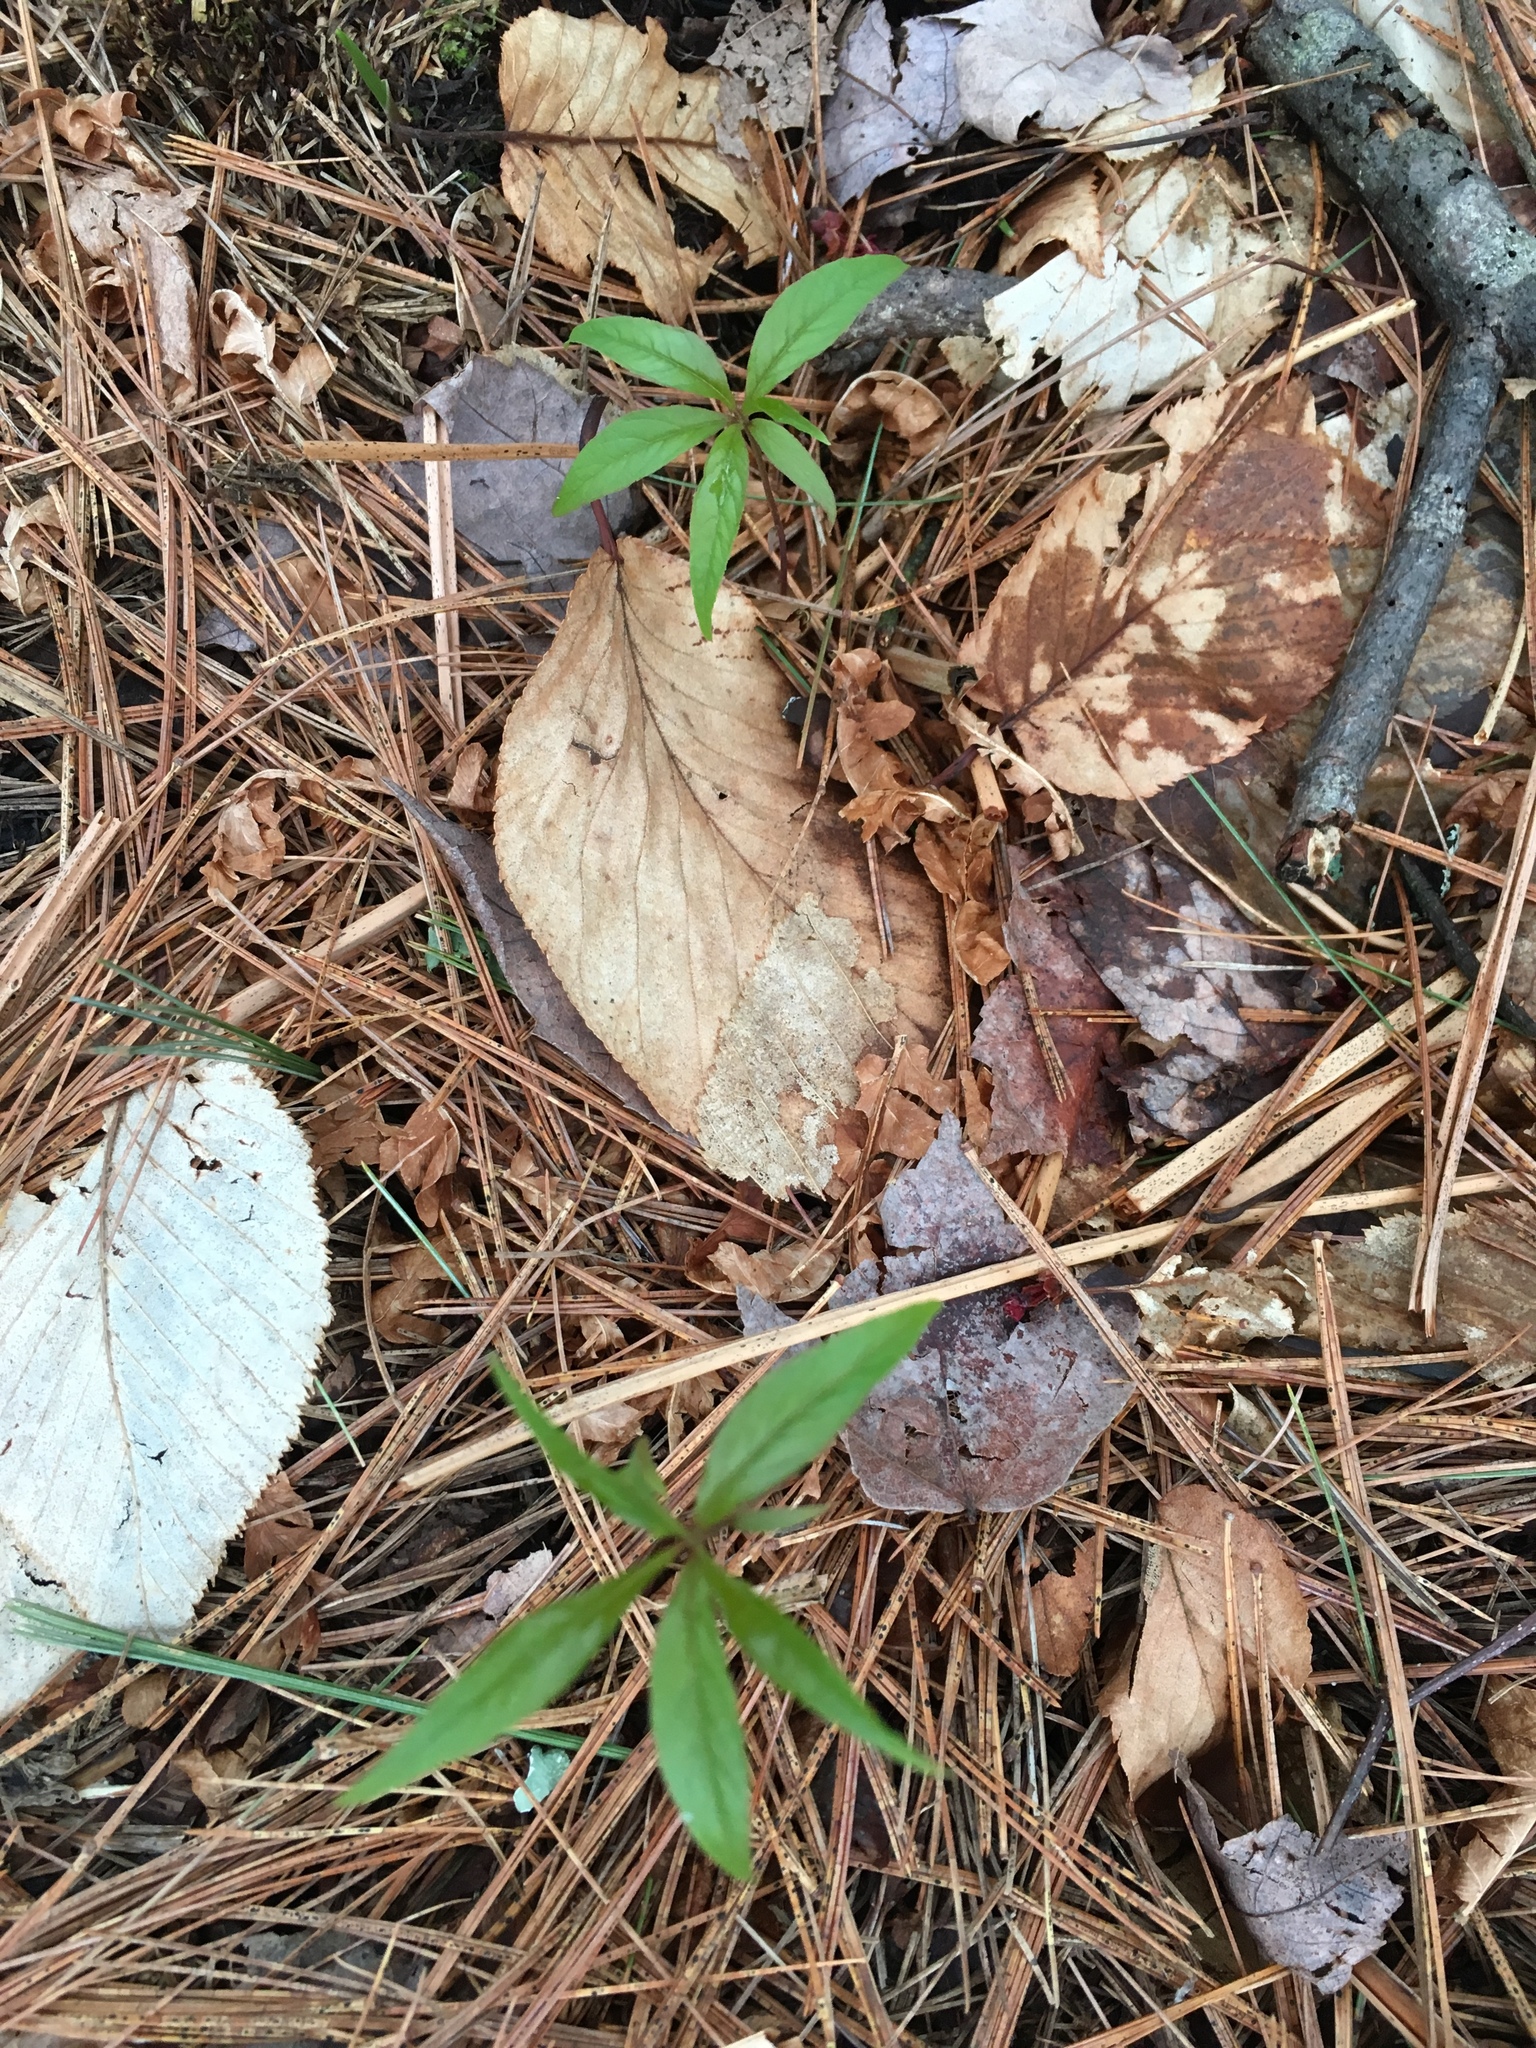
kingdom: Plantae
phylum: Tracheophyta
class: Magnoliopsida
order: Ericales
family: Primulaceae
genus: Lysimachia
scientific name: Lysimachia borealis
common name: American starflower
